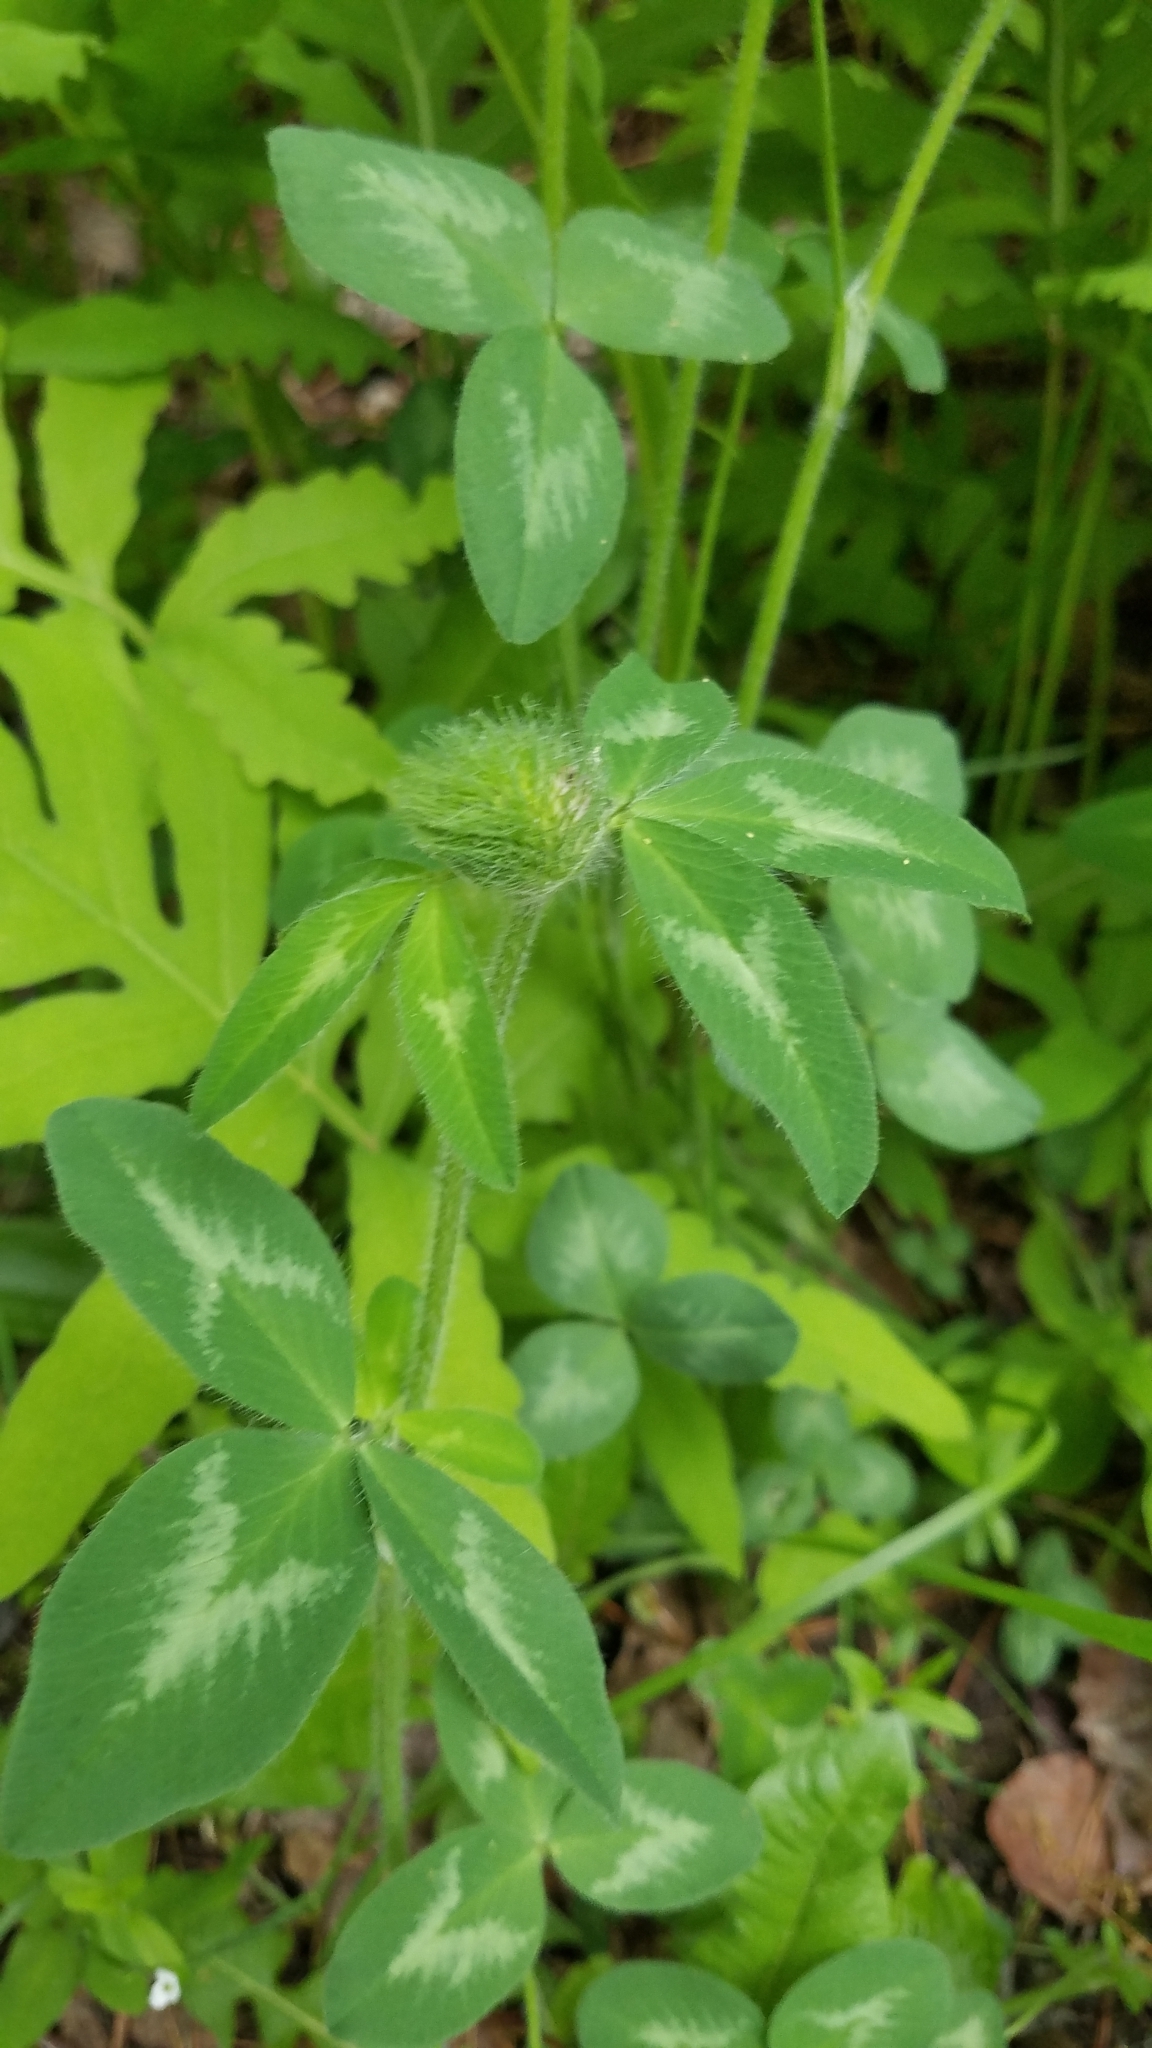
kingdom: Plantae
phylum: Tracheophyta
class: Magnoliopsida
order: Fabales
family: Fabaceae
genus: Trifolium
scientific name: Trifolium pratense
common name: Red clover
